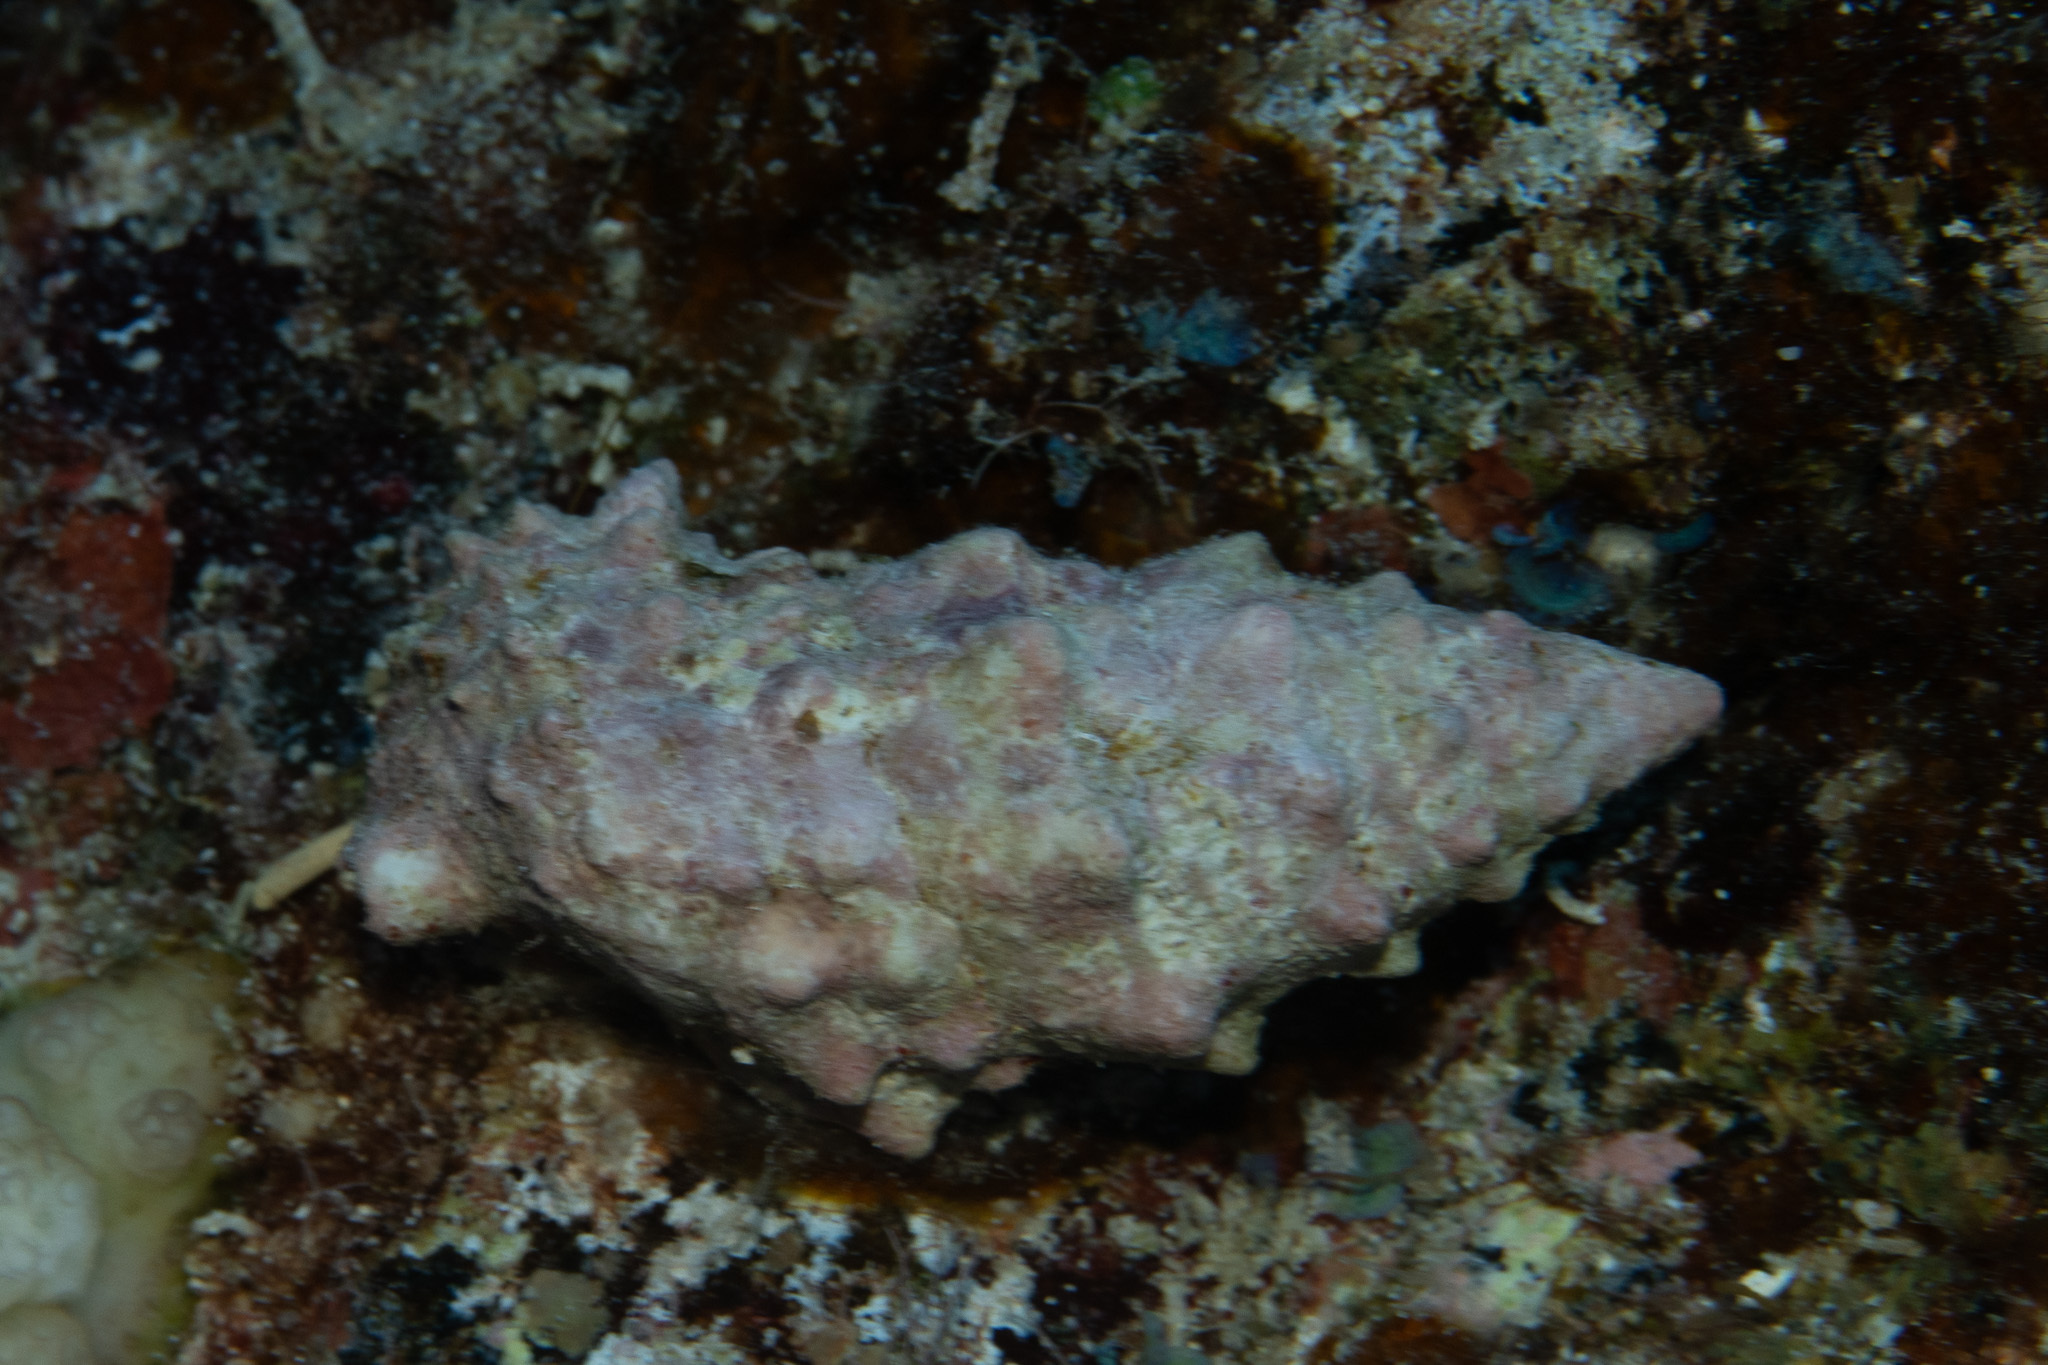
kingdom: Animalia
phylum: Mollusca
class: Gastropoda
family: Cerithiidae
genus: Cerithium
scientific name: Cerithium echinatum
